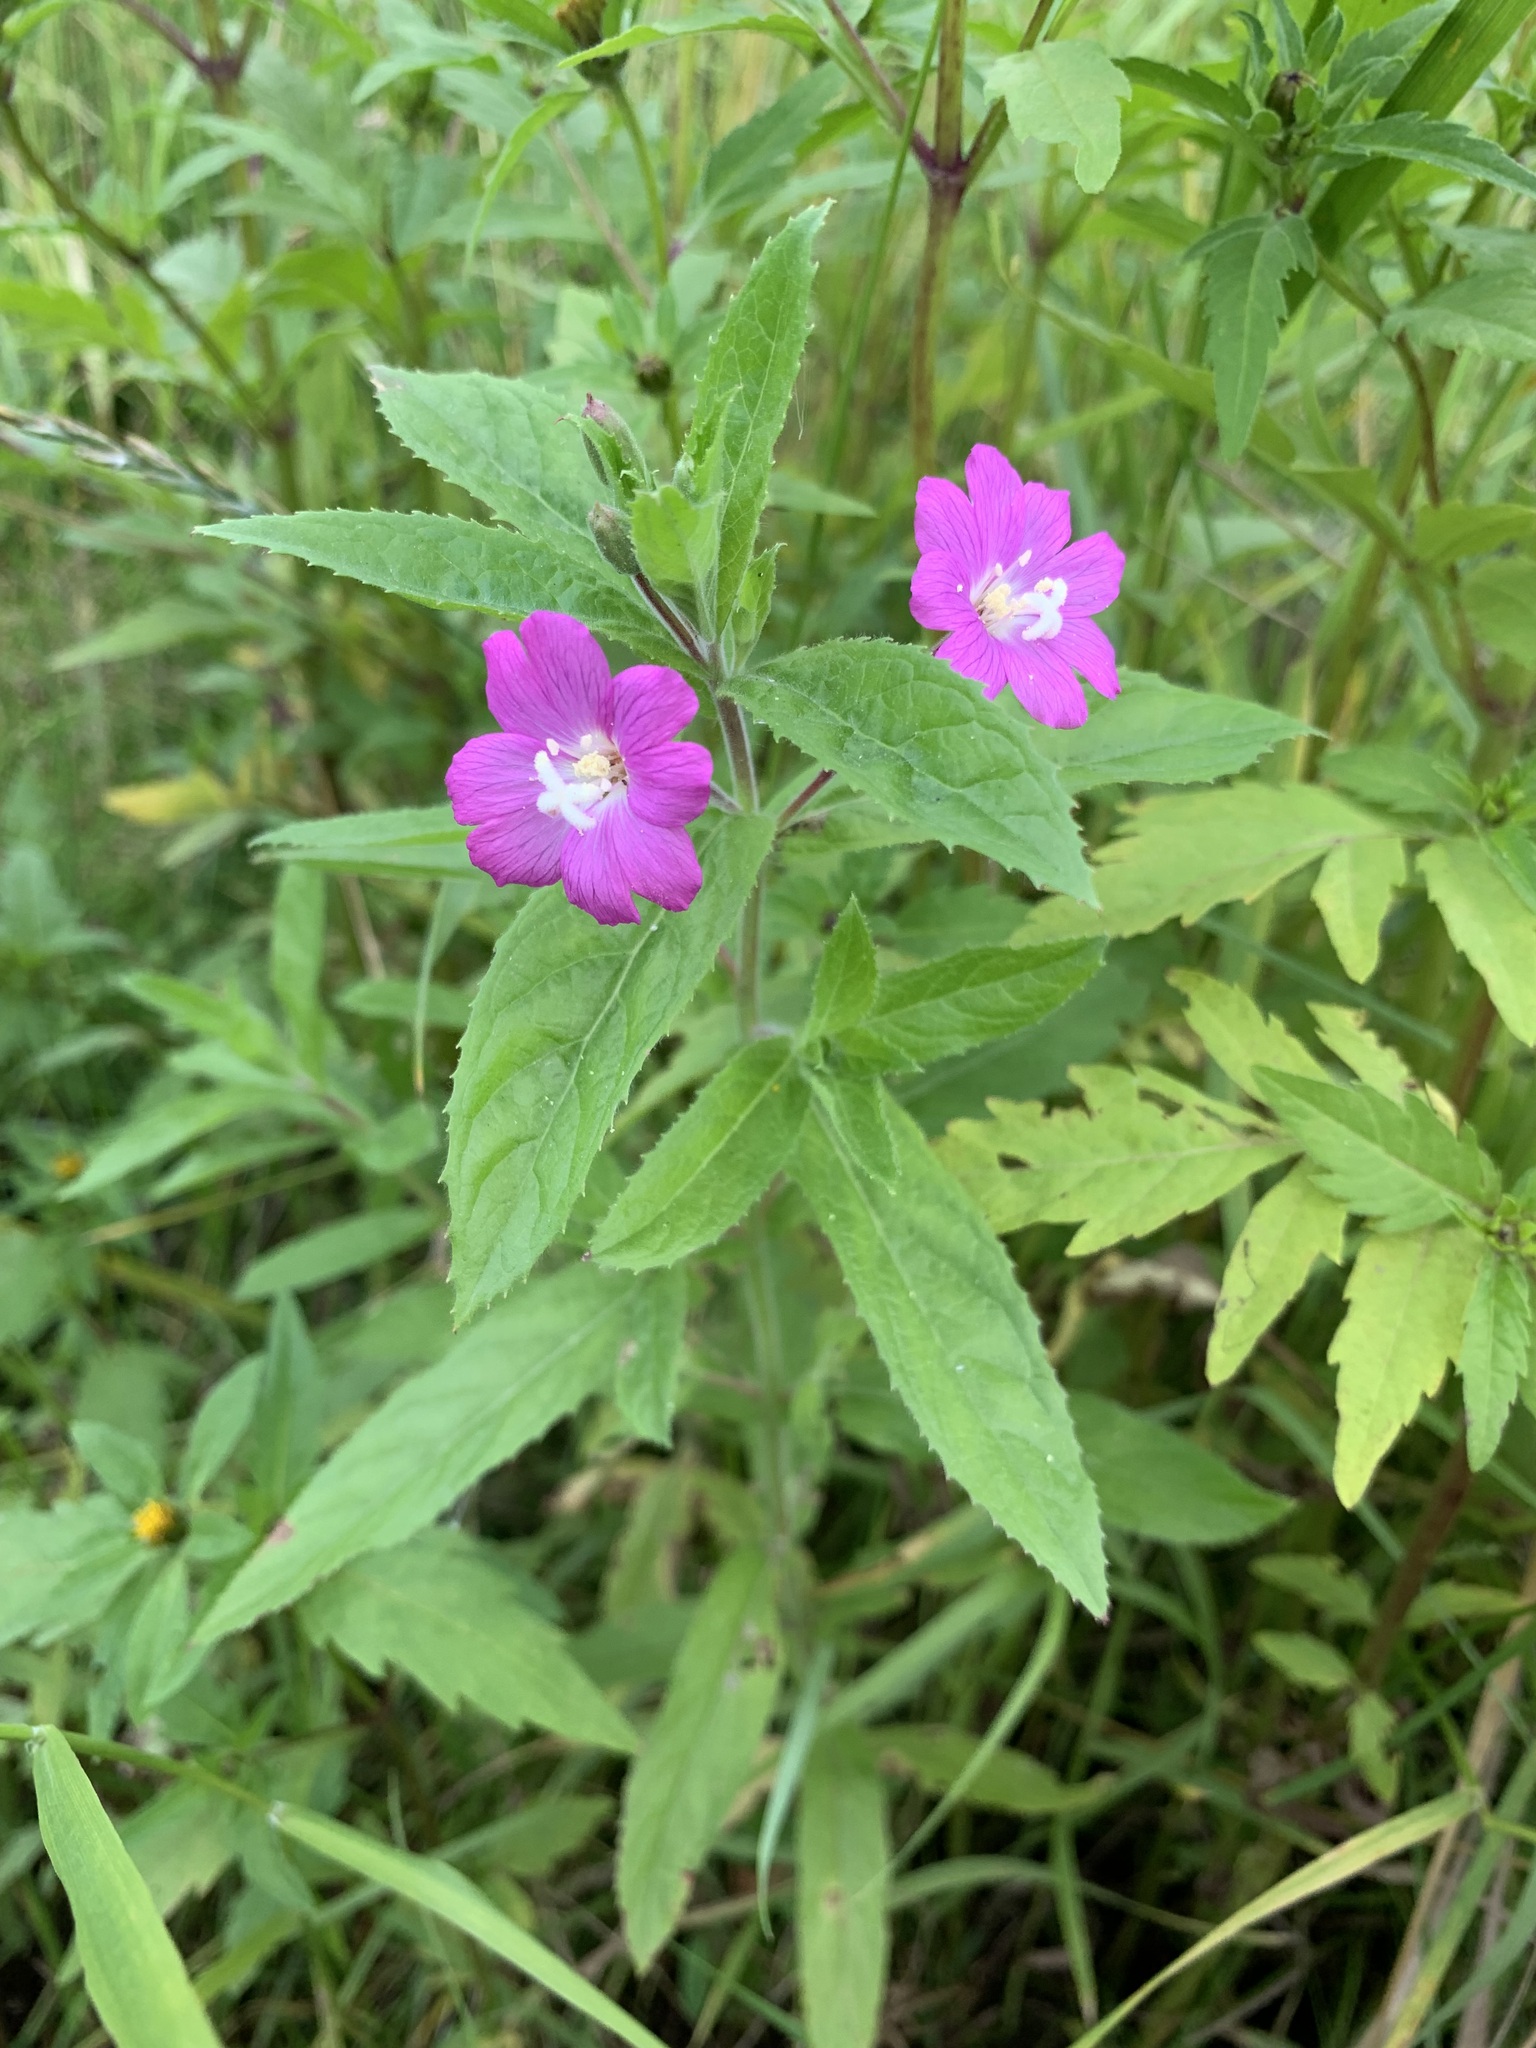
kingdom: Plantae
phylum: Tracheophyta
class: Magnoliopsida
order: Myrtales
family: Onagraceae
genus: Epilobium
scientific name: Epilobium hirsutum
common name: Great willowherb
